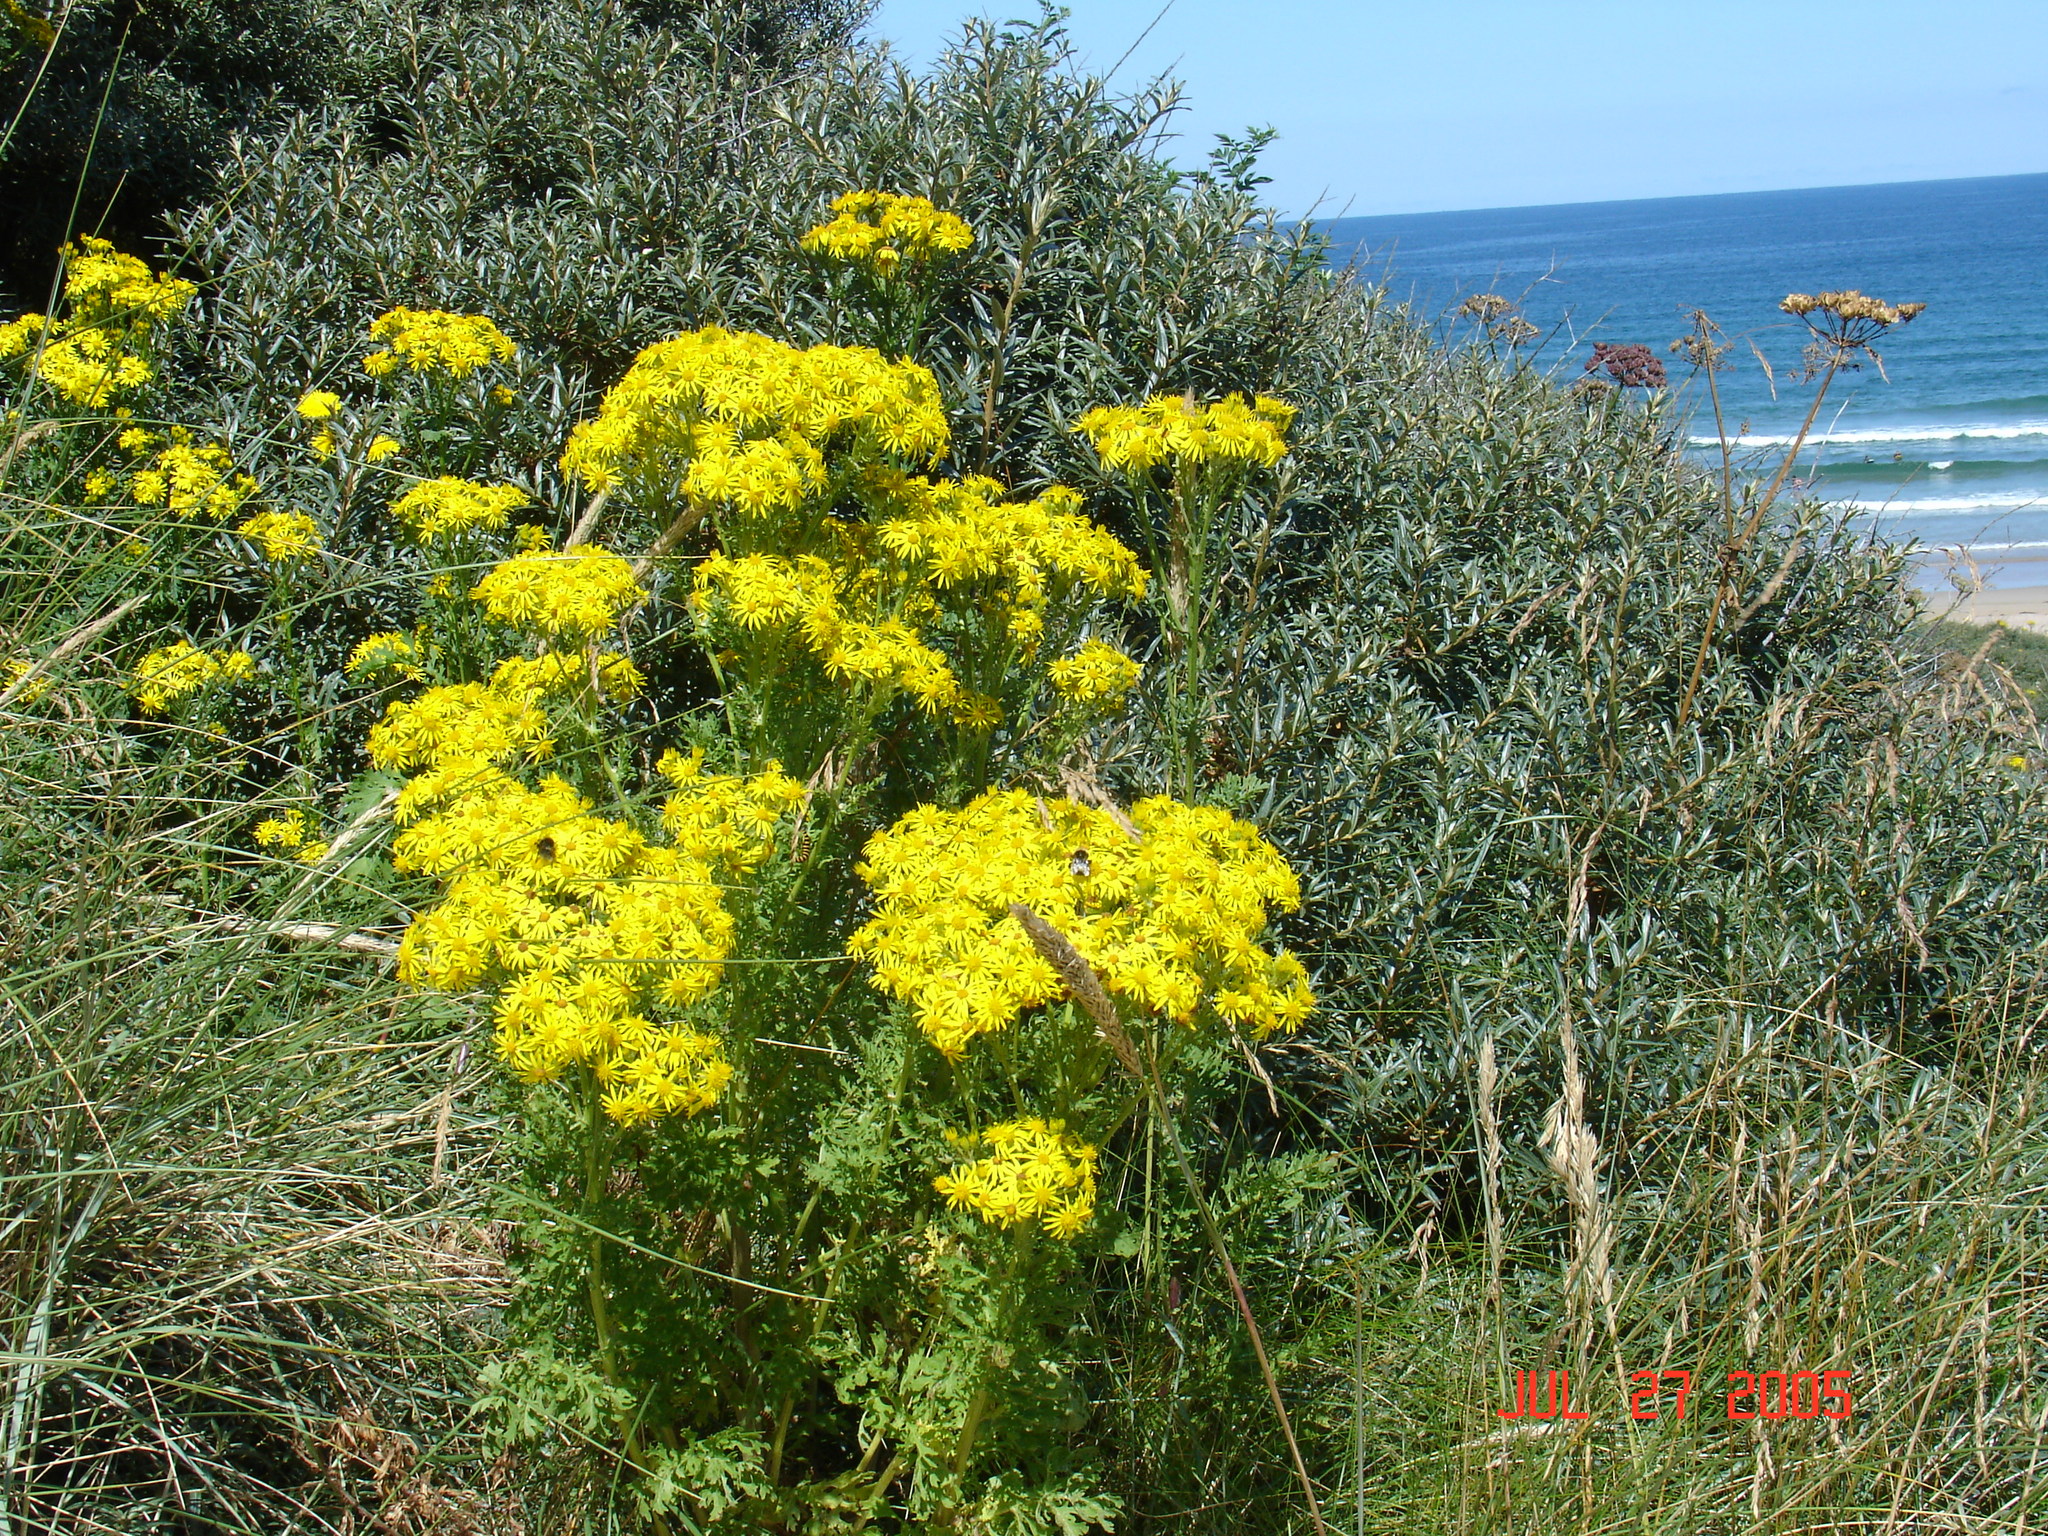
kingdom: Plantae
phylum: Tracheophyta
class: Magnoliopsida
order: Asterales
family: Asteraceae
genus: Jacobaea
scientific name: Jacobaea vulgaris
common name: Stinking willie
